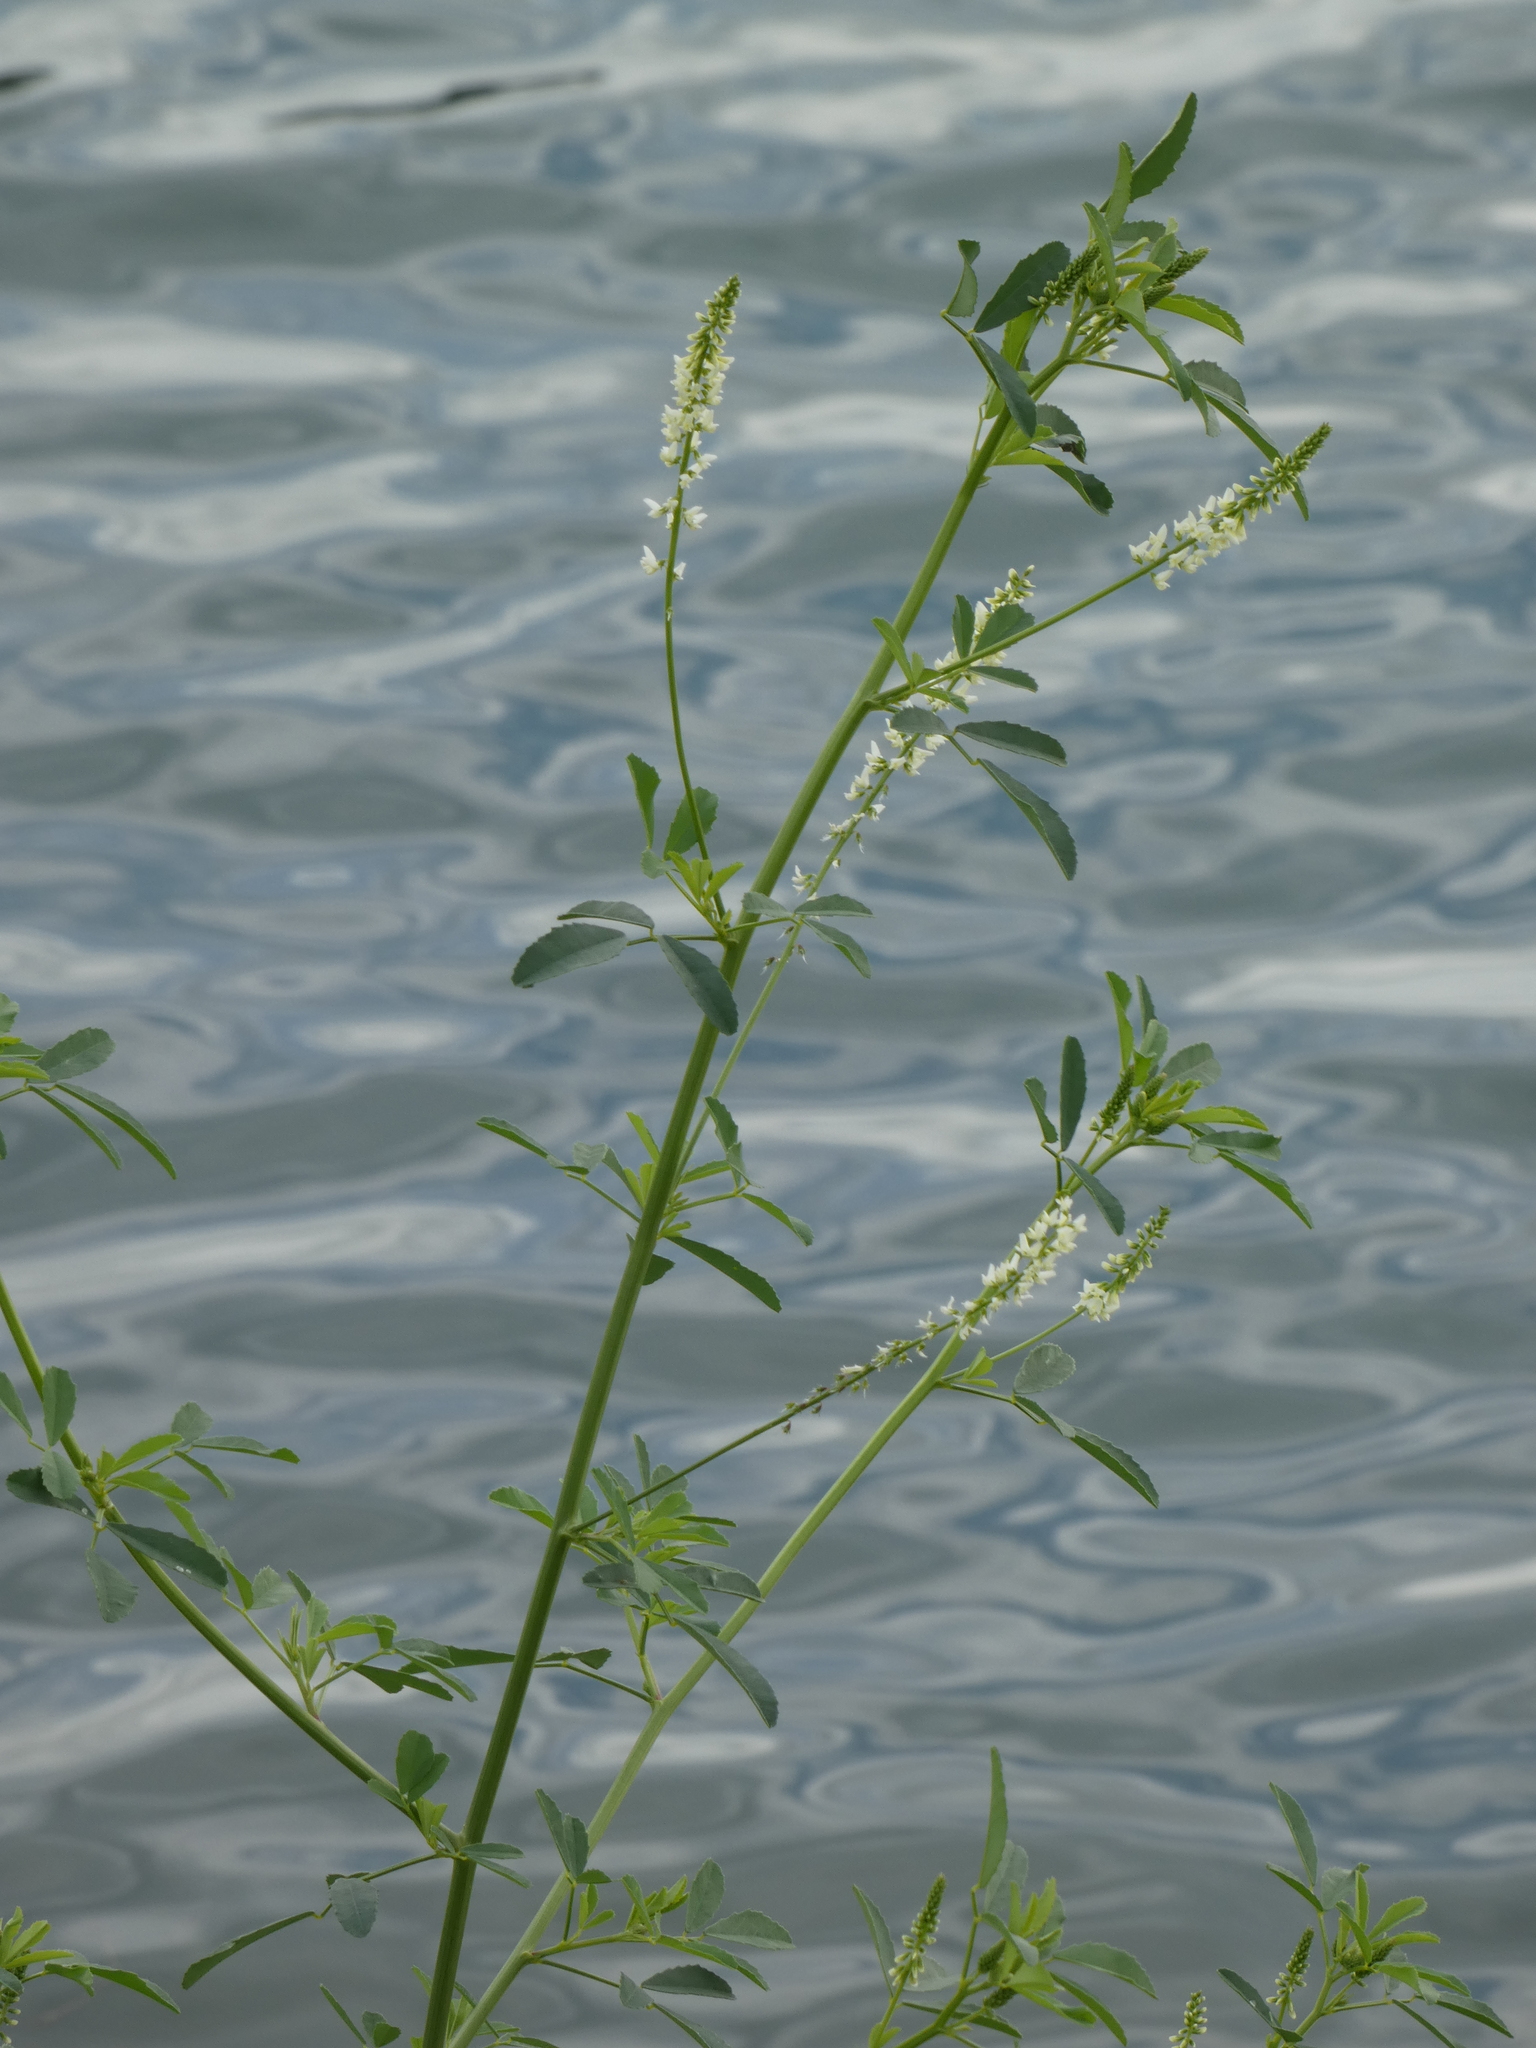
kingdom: Plantae
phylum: Tracheophyta
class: Magnoliopsida
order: Fabales
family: Fabaceae
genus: Melilotus
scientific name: Melilotus albus
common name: White melilot
